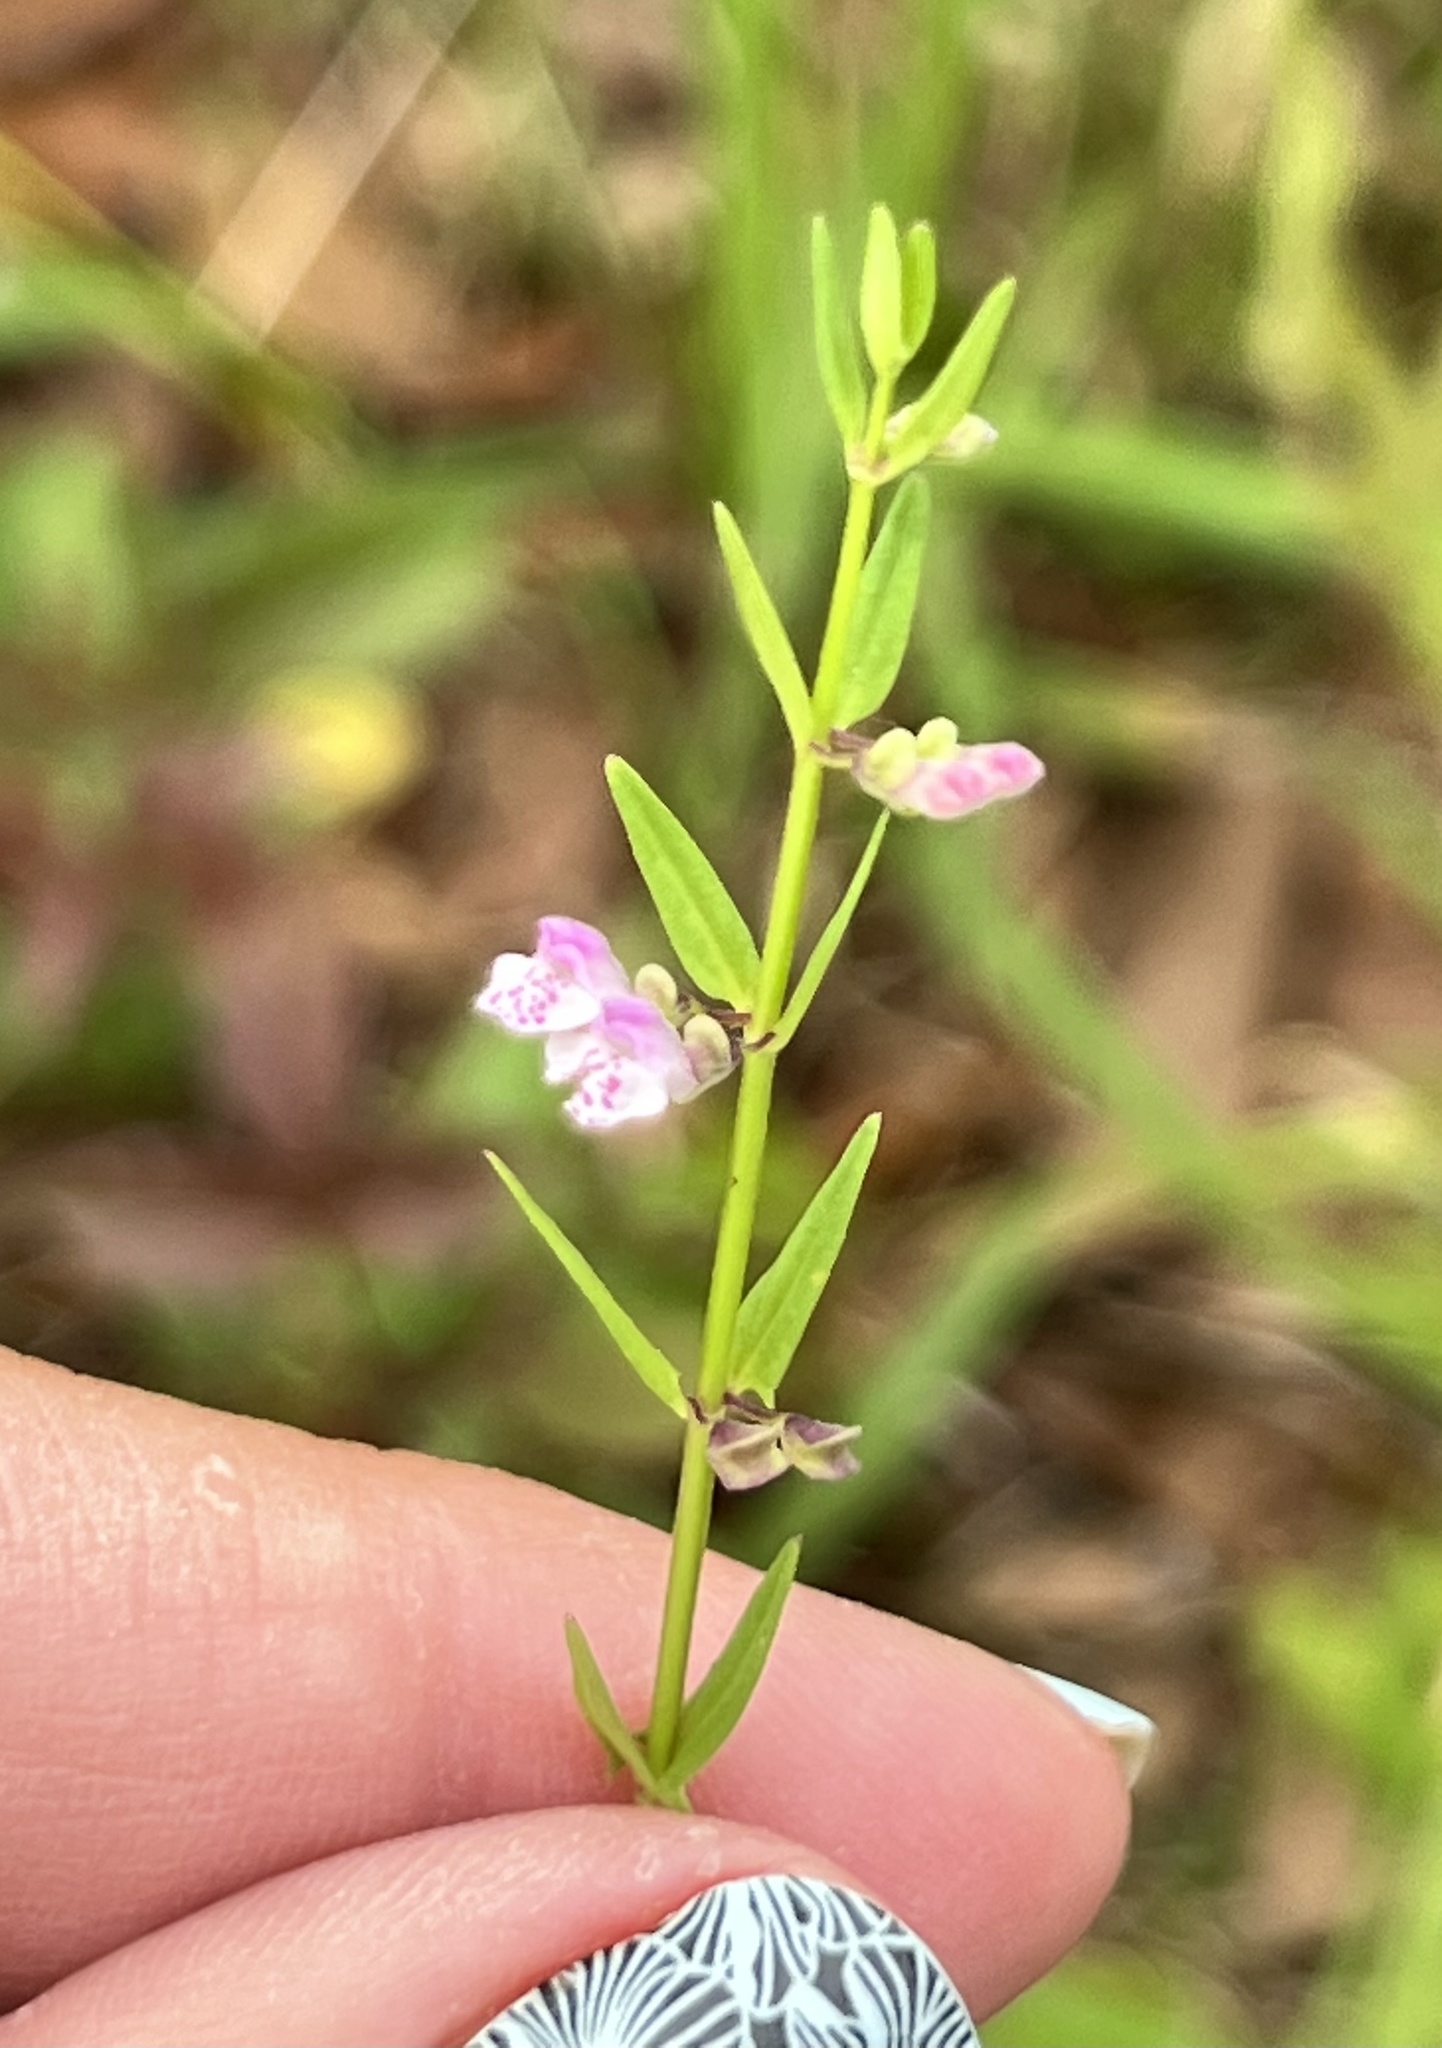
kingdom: Plantae
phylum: Tracheophyta
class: Magnoliopsida
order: Lamiales
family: Lamiaceae
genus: Scutellaria
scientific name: Scutellaria racemosa
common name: South american skullcap
